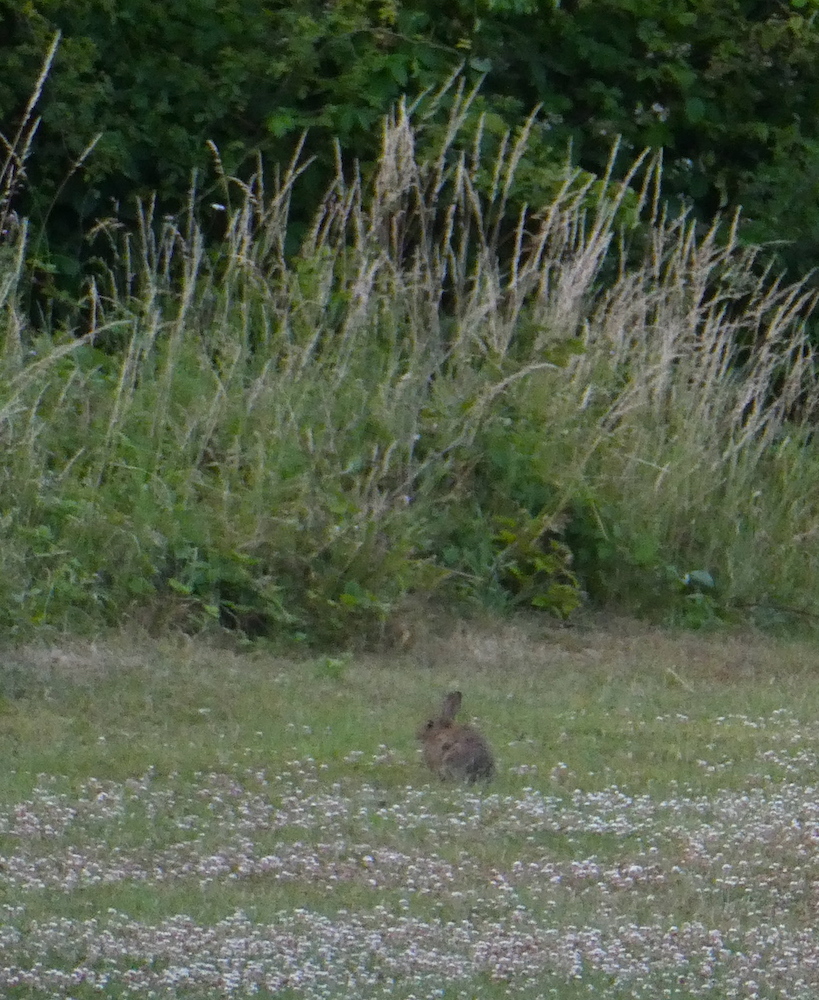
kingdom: Animalia
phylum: Chordata
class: Mammalia
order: Lagomorpha
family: Leporidae
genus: Oryctolagus
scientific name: Oryctolagus cuniculus
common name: European rabbit
